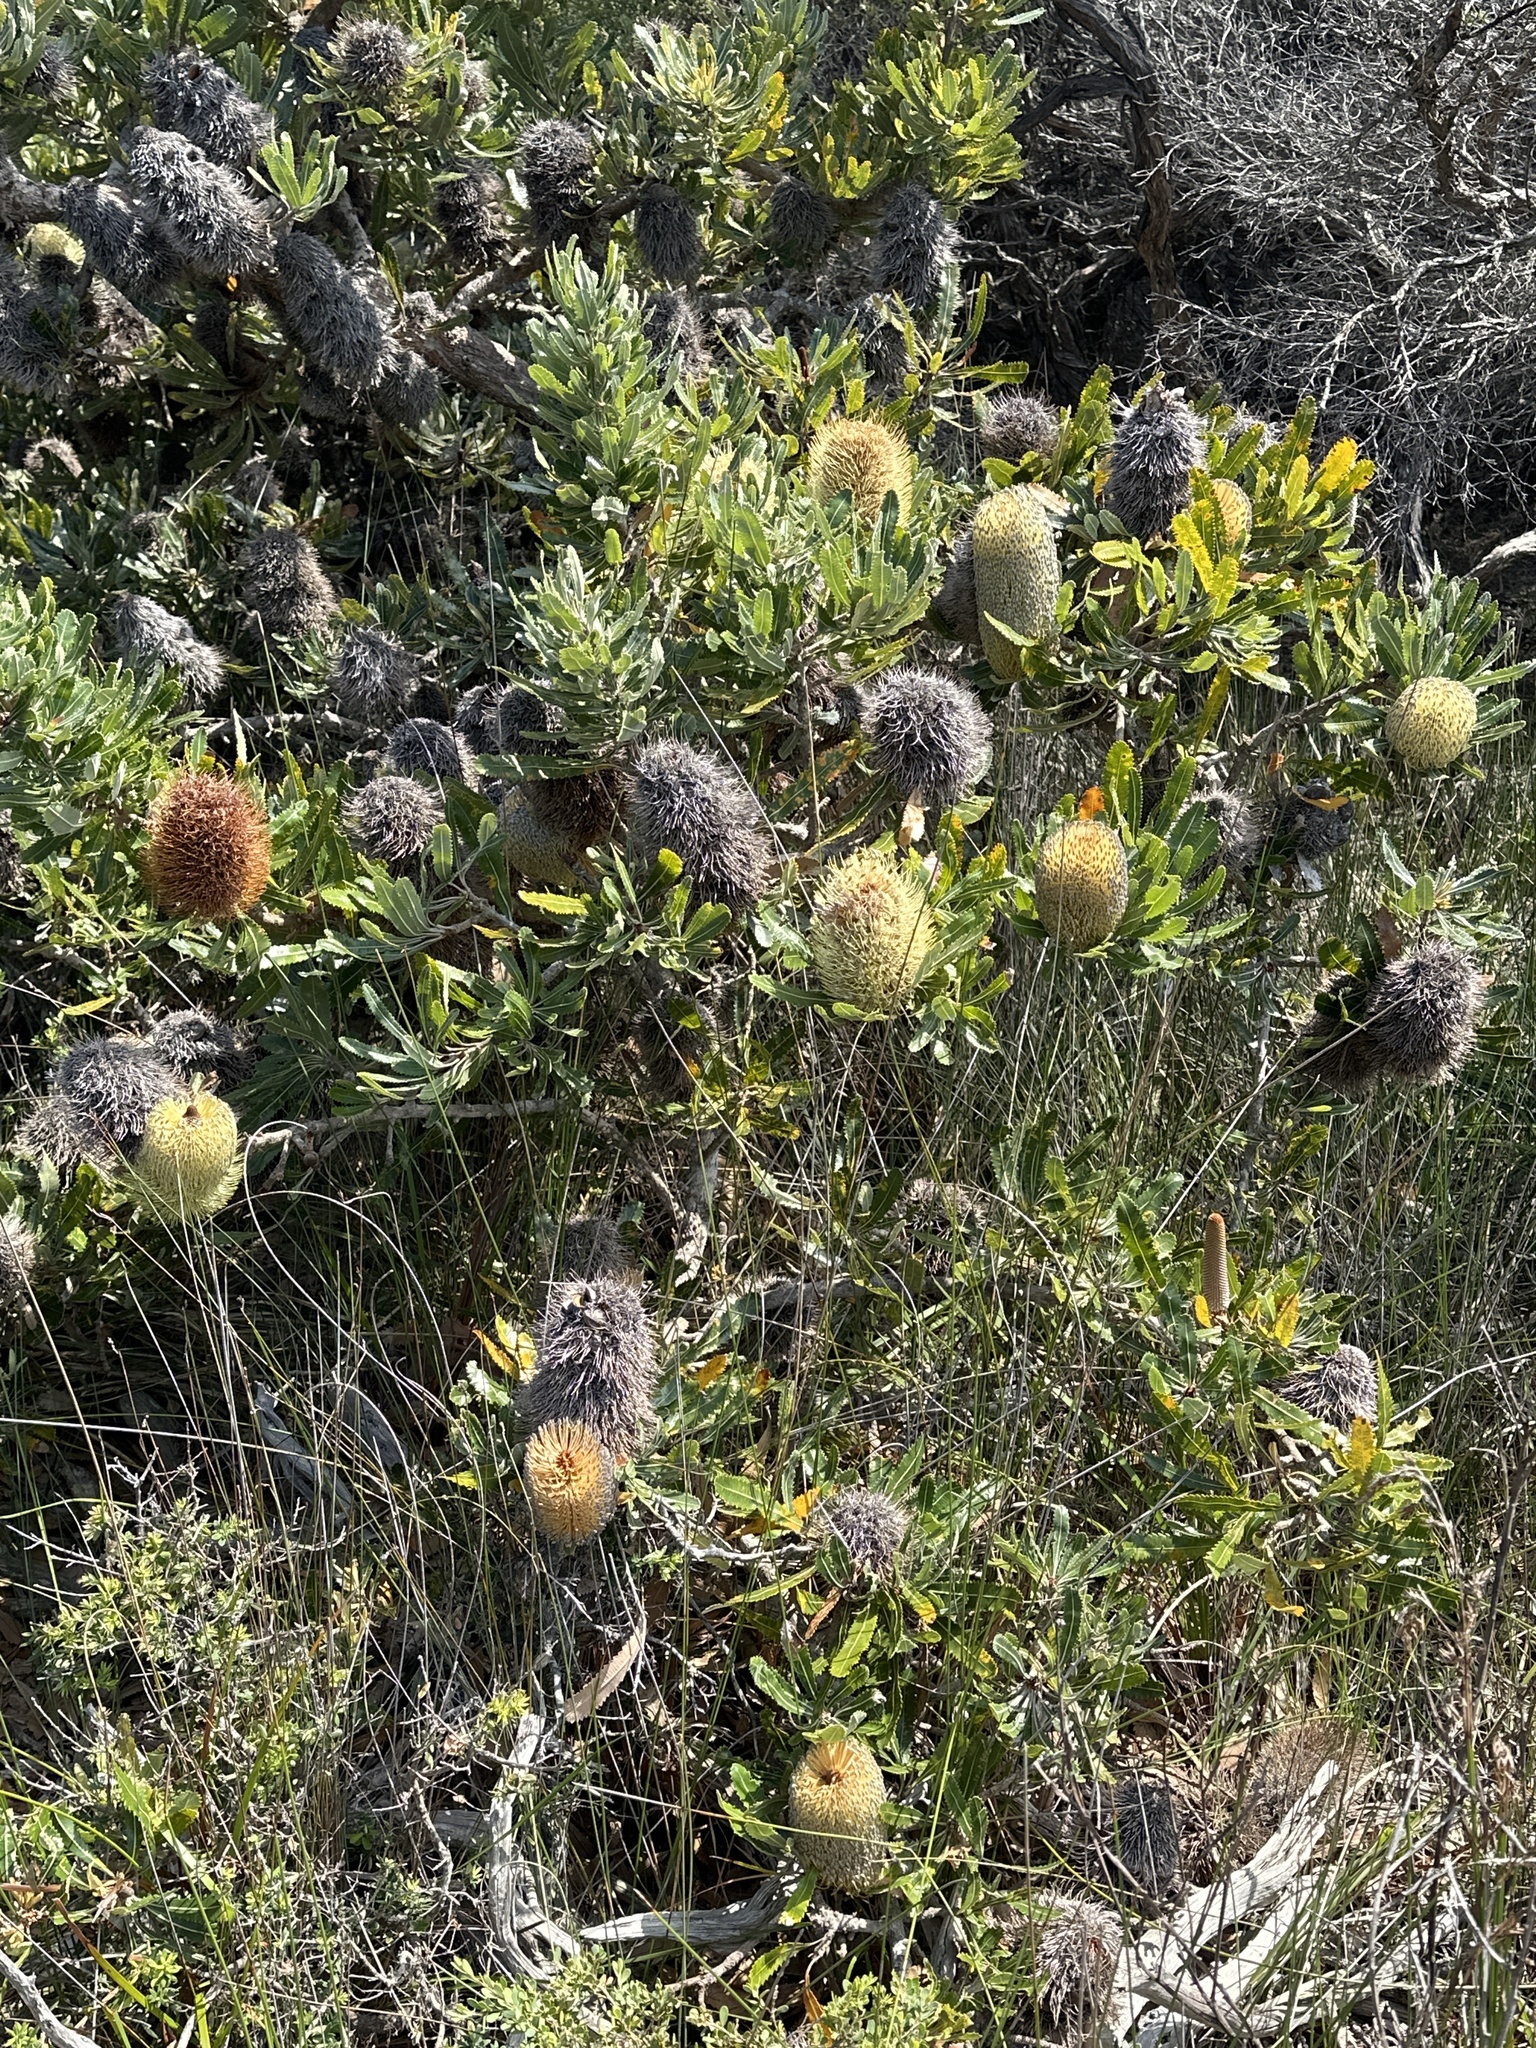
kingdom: Plantae
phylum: Tracheophyta
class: Magnoliopsida
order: Proteales
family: Proteaceae
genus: Banksia
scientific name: Banksia serrata
